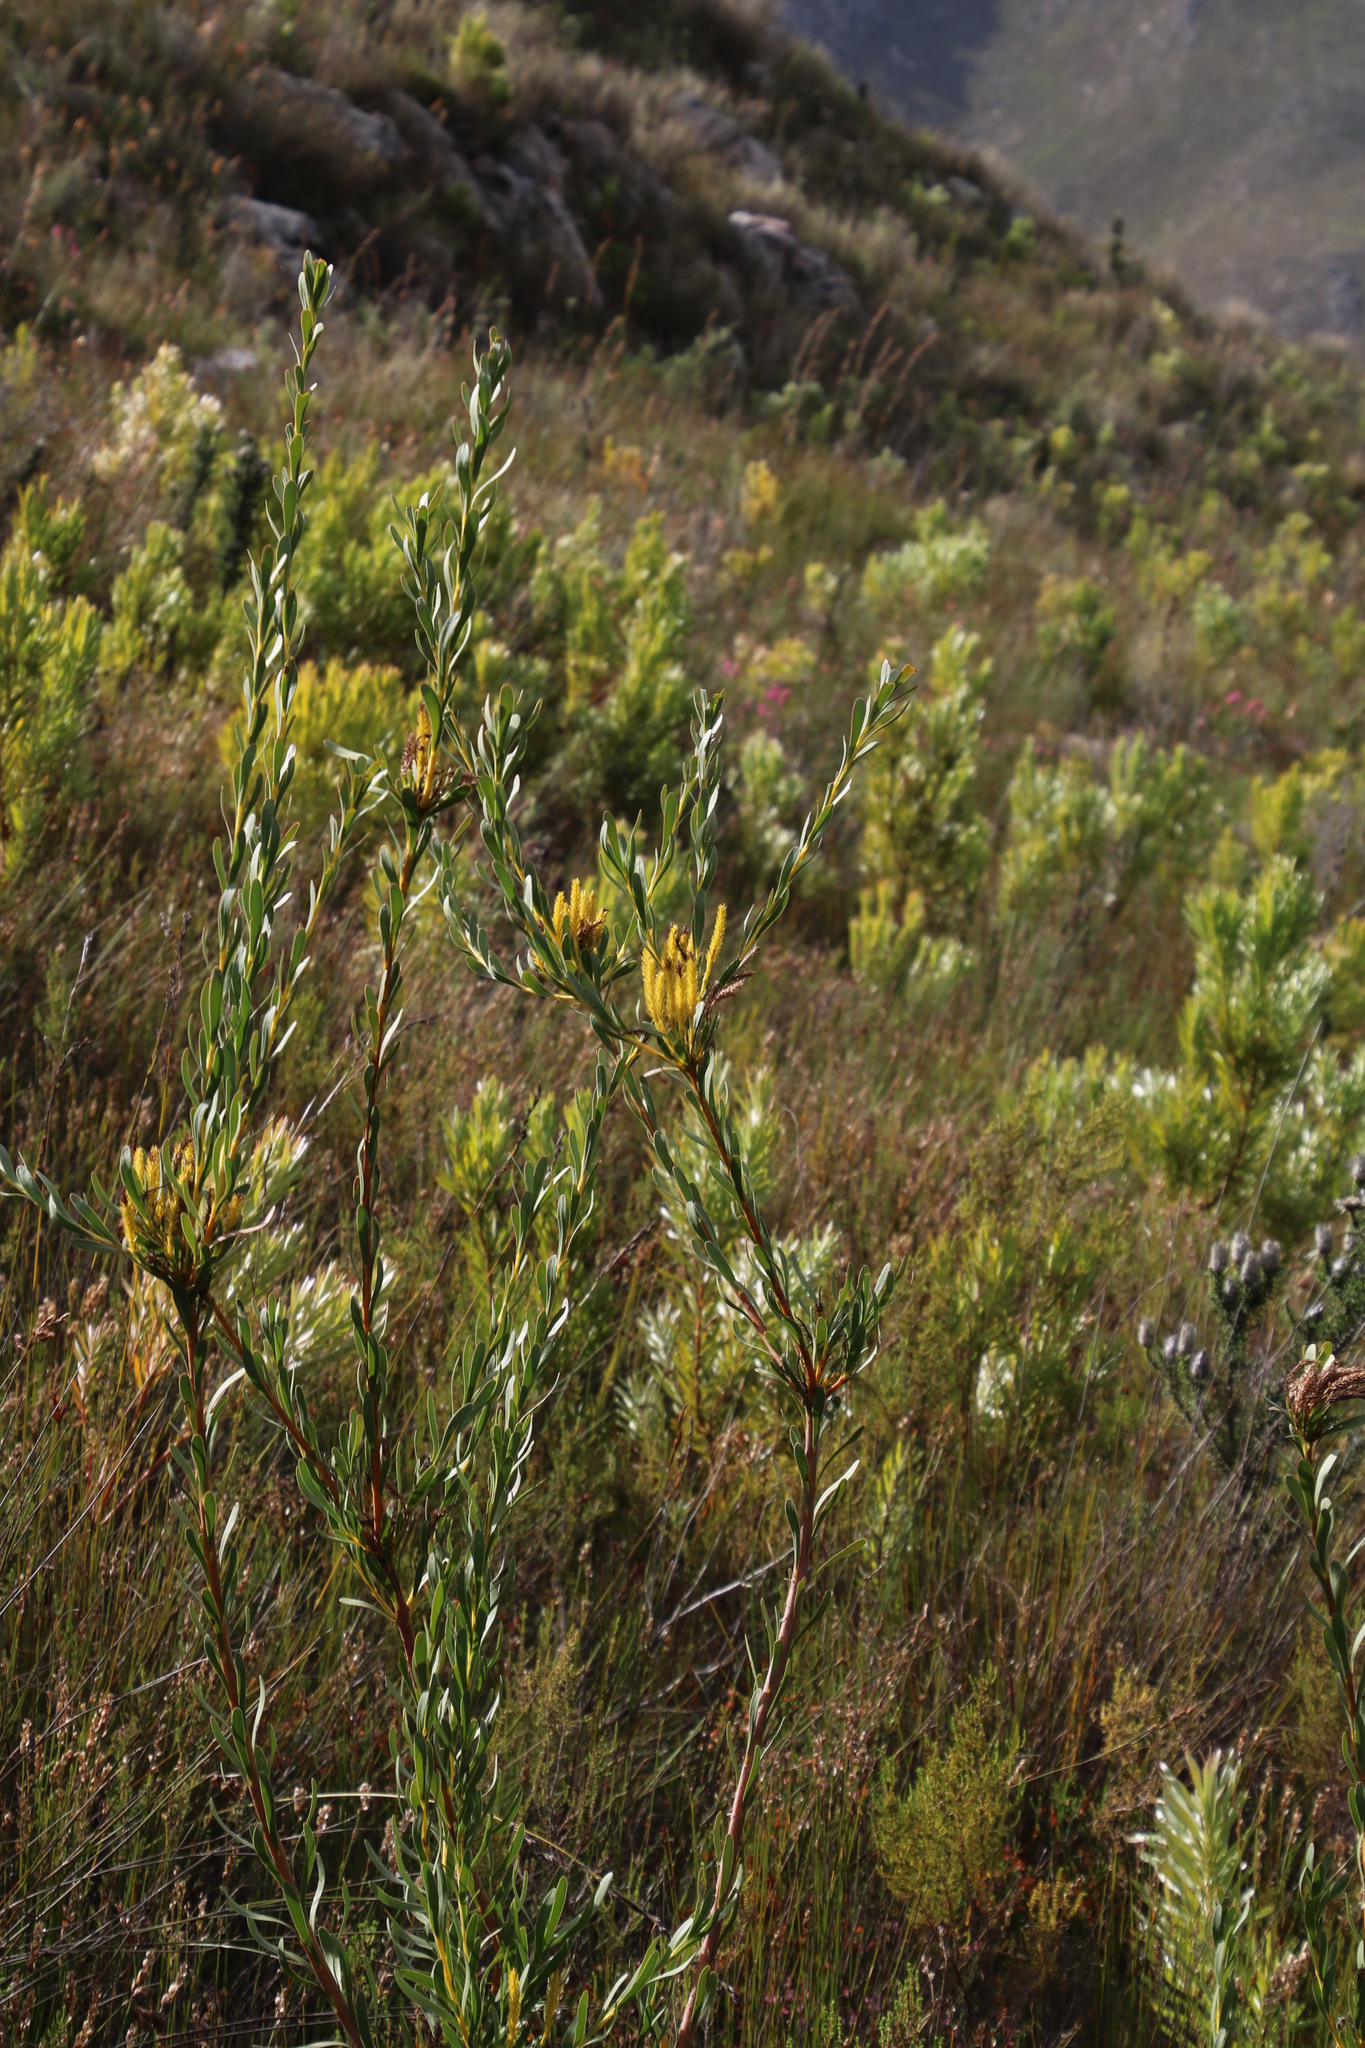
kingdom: Plantae
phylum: Tracheophyta
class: Magnoliopsida
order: Proteales
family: Proteaceae
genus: Aulax
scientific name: Aulax umbellata
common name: Broad-leaf featherbush
